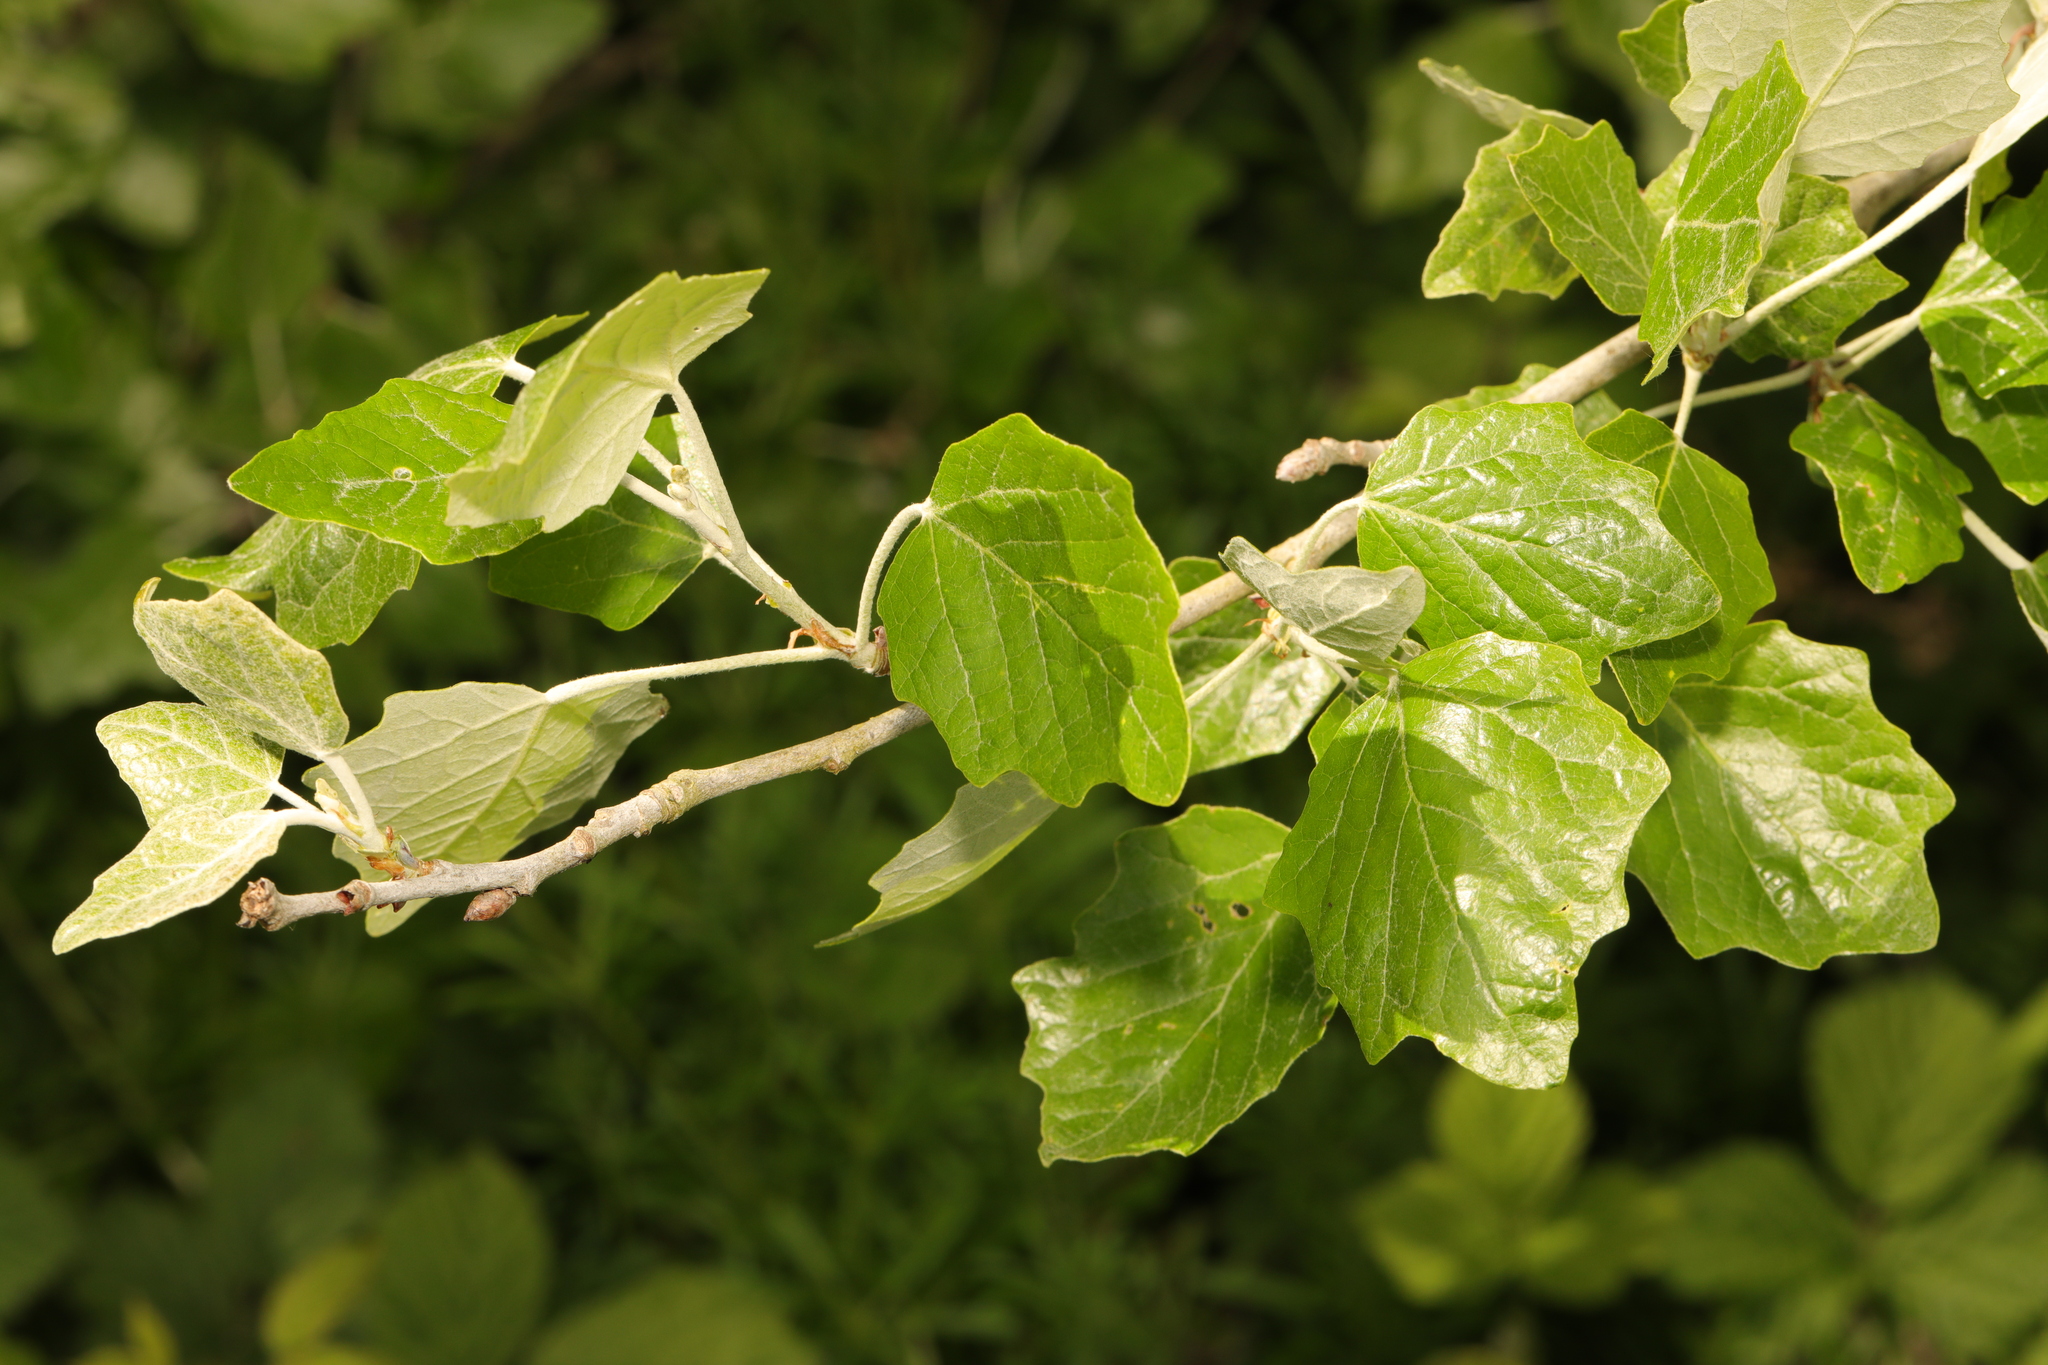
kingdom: Plantae
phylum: Tracheophyta
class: Magnoliopsida
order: Malpighiales
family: Salicaceae
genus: Populus
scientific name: Populus alba
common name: White poplar
